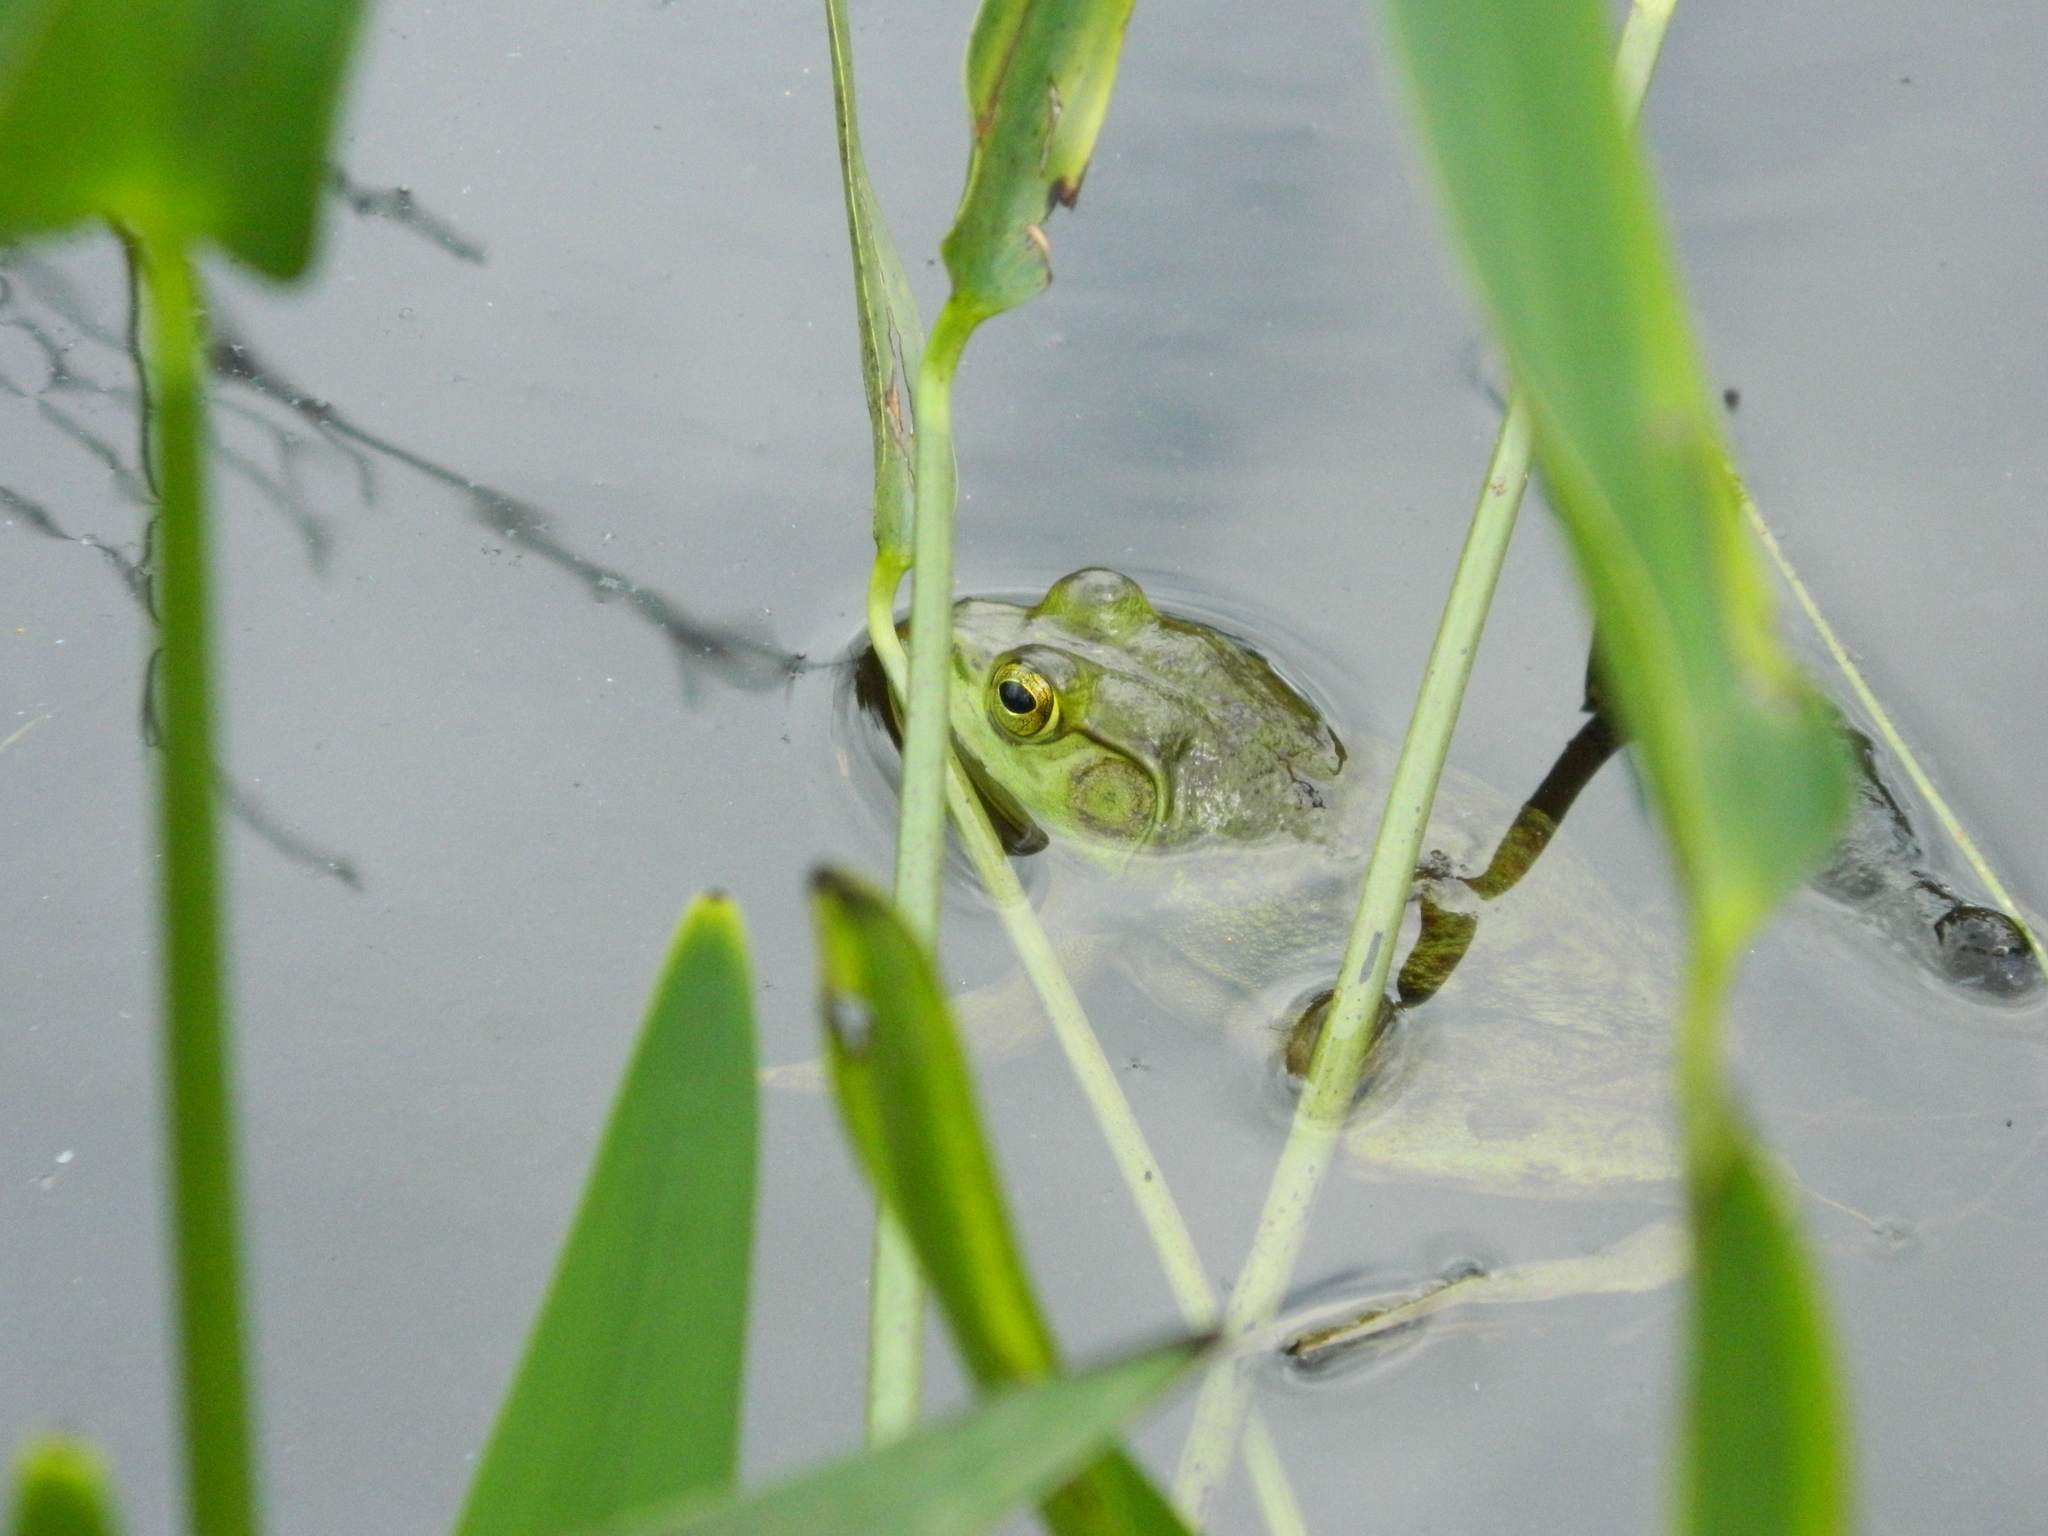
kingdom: Animalia
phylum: Chordata
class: Amphibia
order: Anura
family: Ranidae
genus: Lithobates
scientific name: Lithobates catesbeianus
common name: American bullfrog
